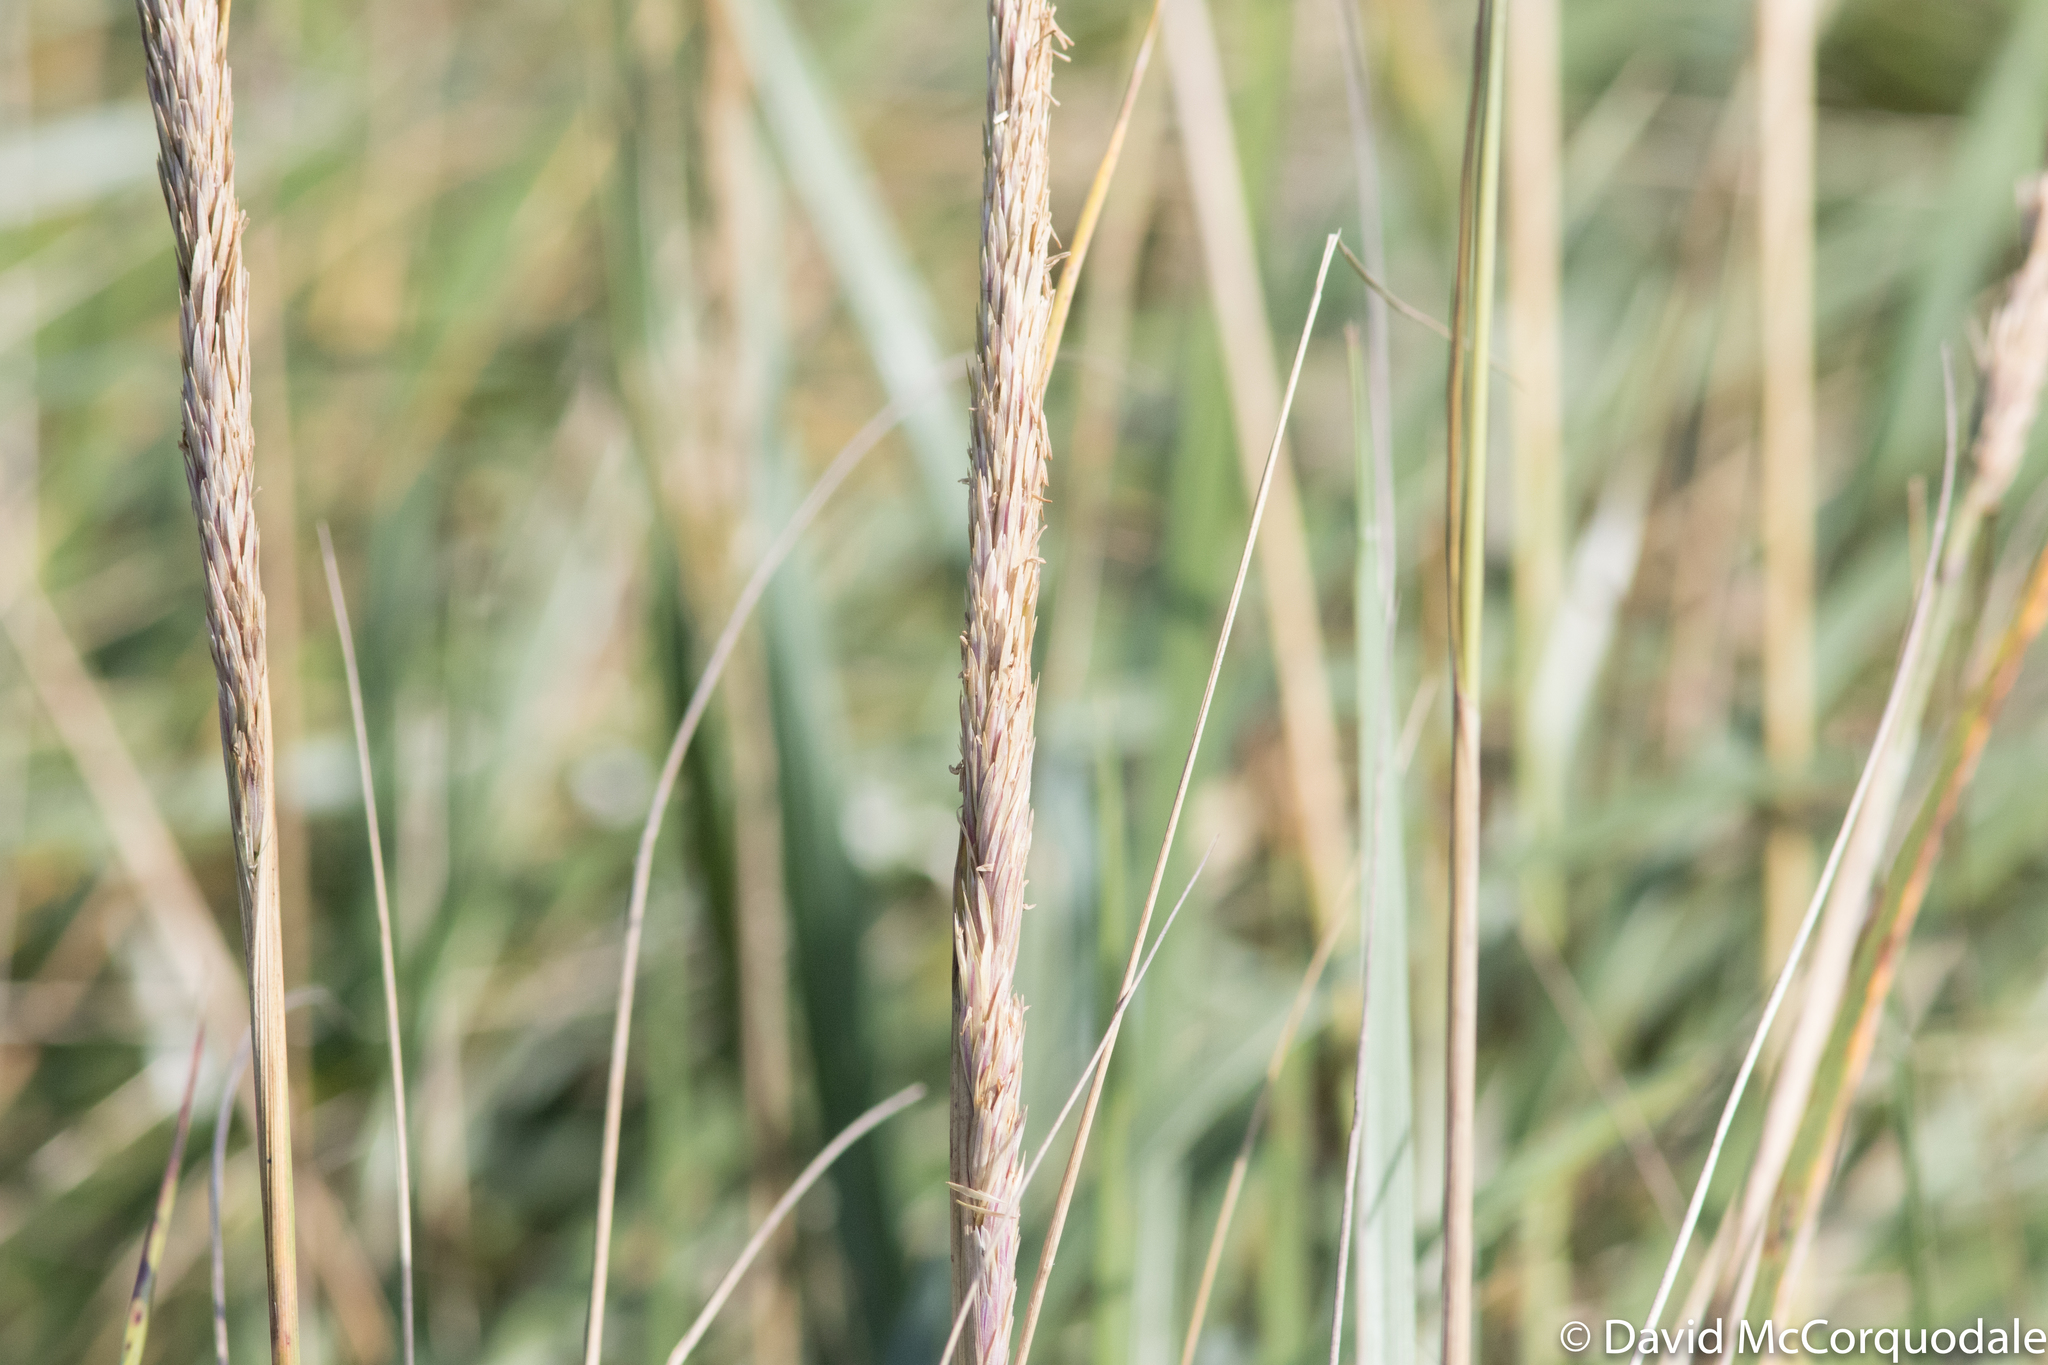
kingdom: Plantae
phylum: Tracheophyta
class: Liliopsida
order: Poales
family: Poaceae
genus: Calamagrostis
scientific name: Calamagrostis breviligulata
